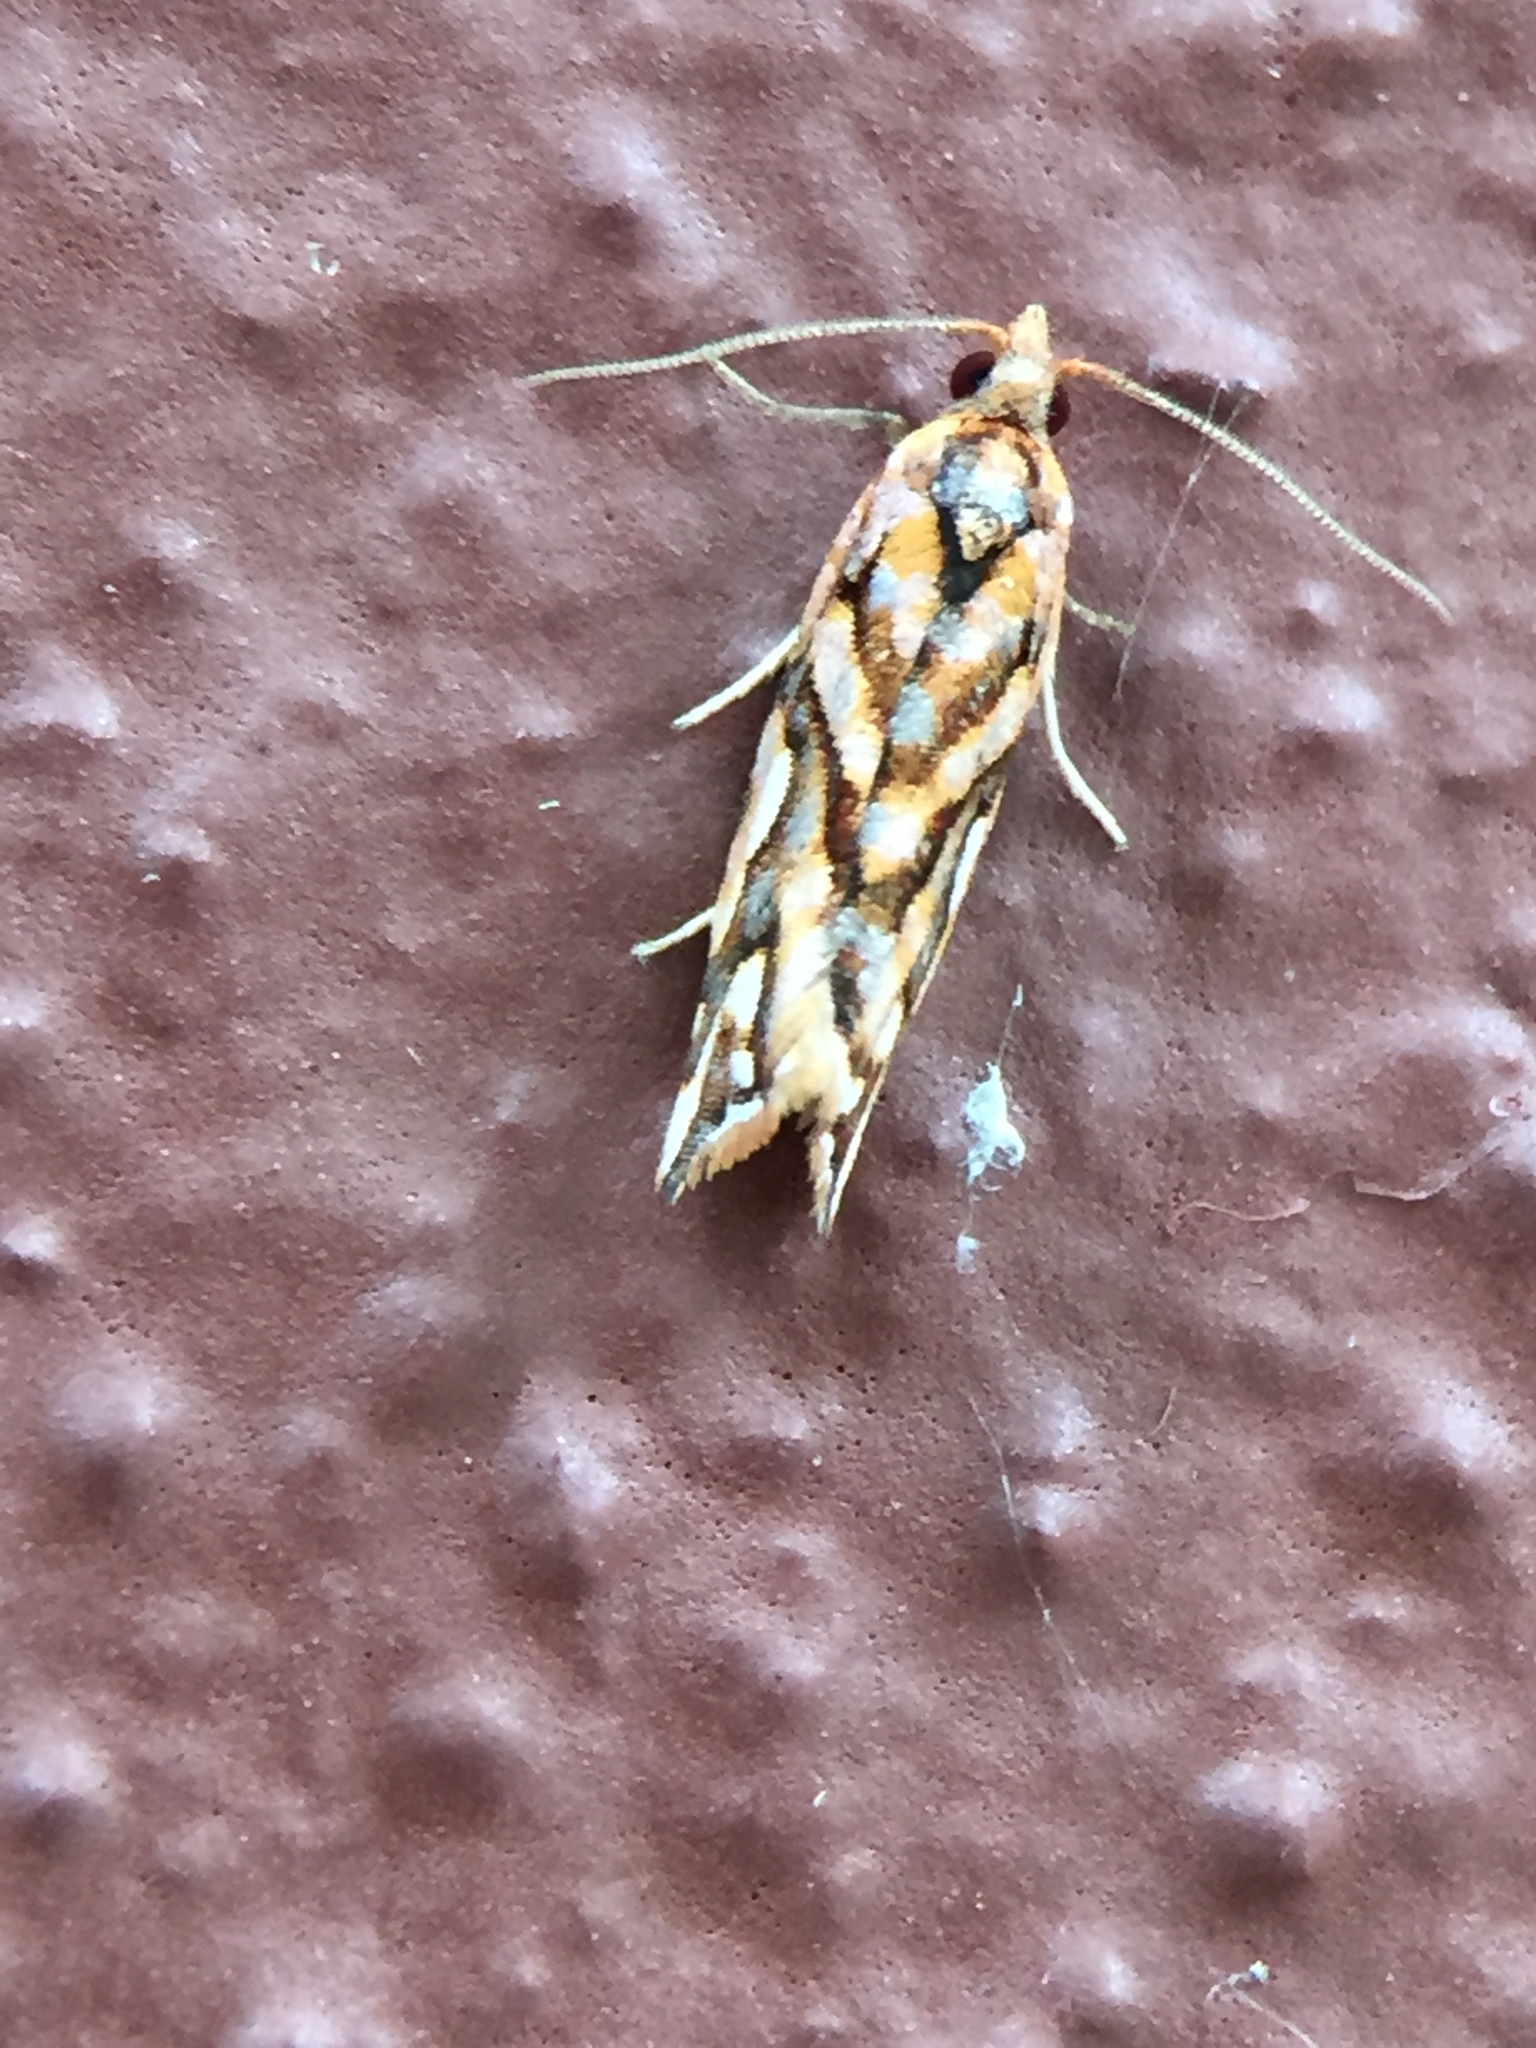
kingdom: Animalia
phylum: Arthropoda
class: Insecta
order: Lepidoptera
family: Tortricidae
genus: Pyrgotis
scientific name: Pyrgotis plinthoglypta
